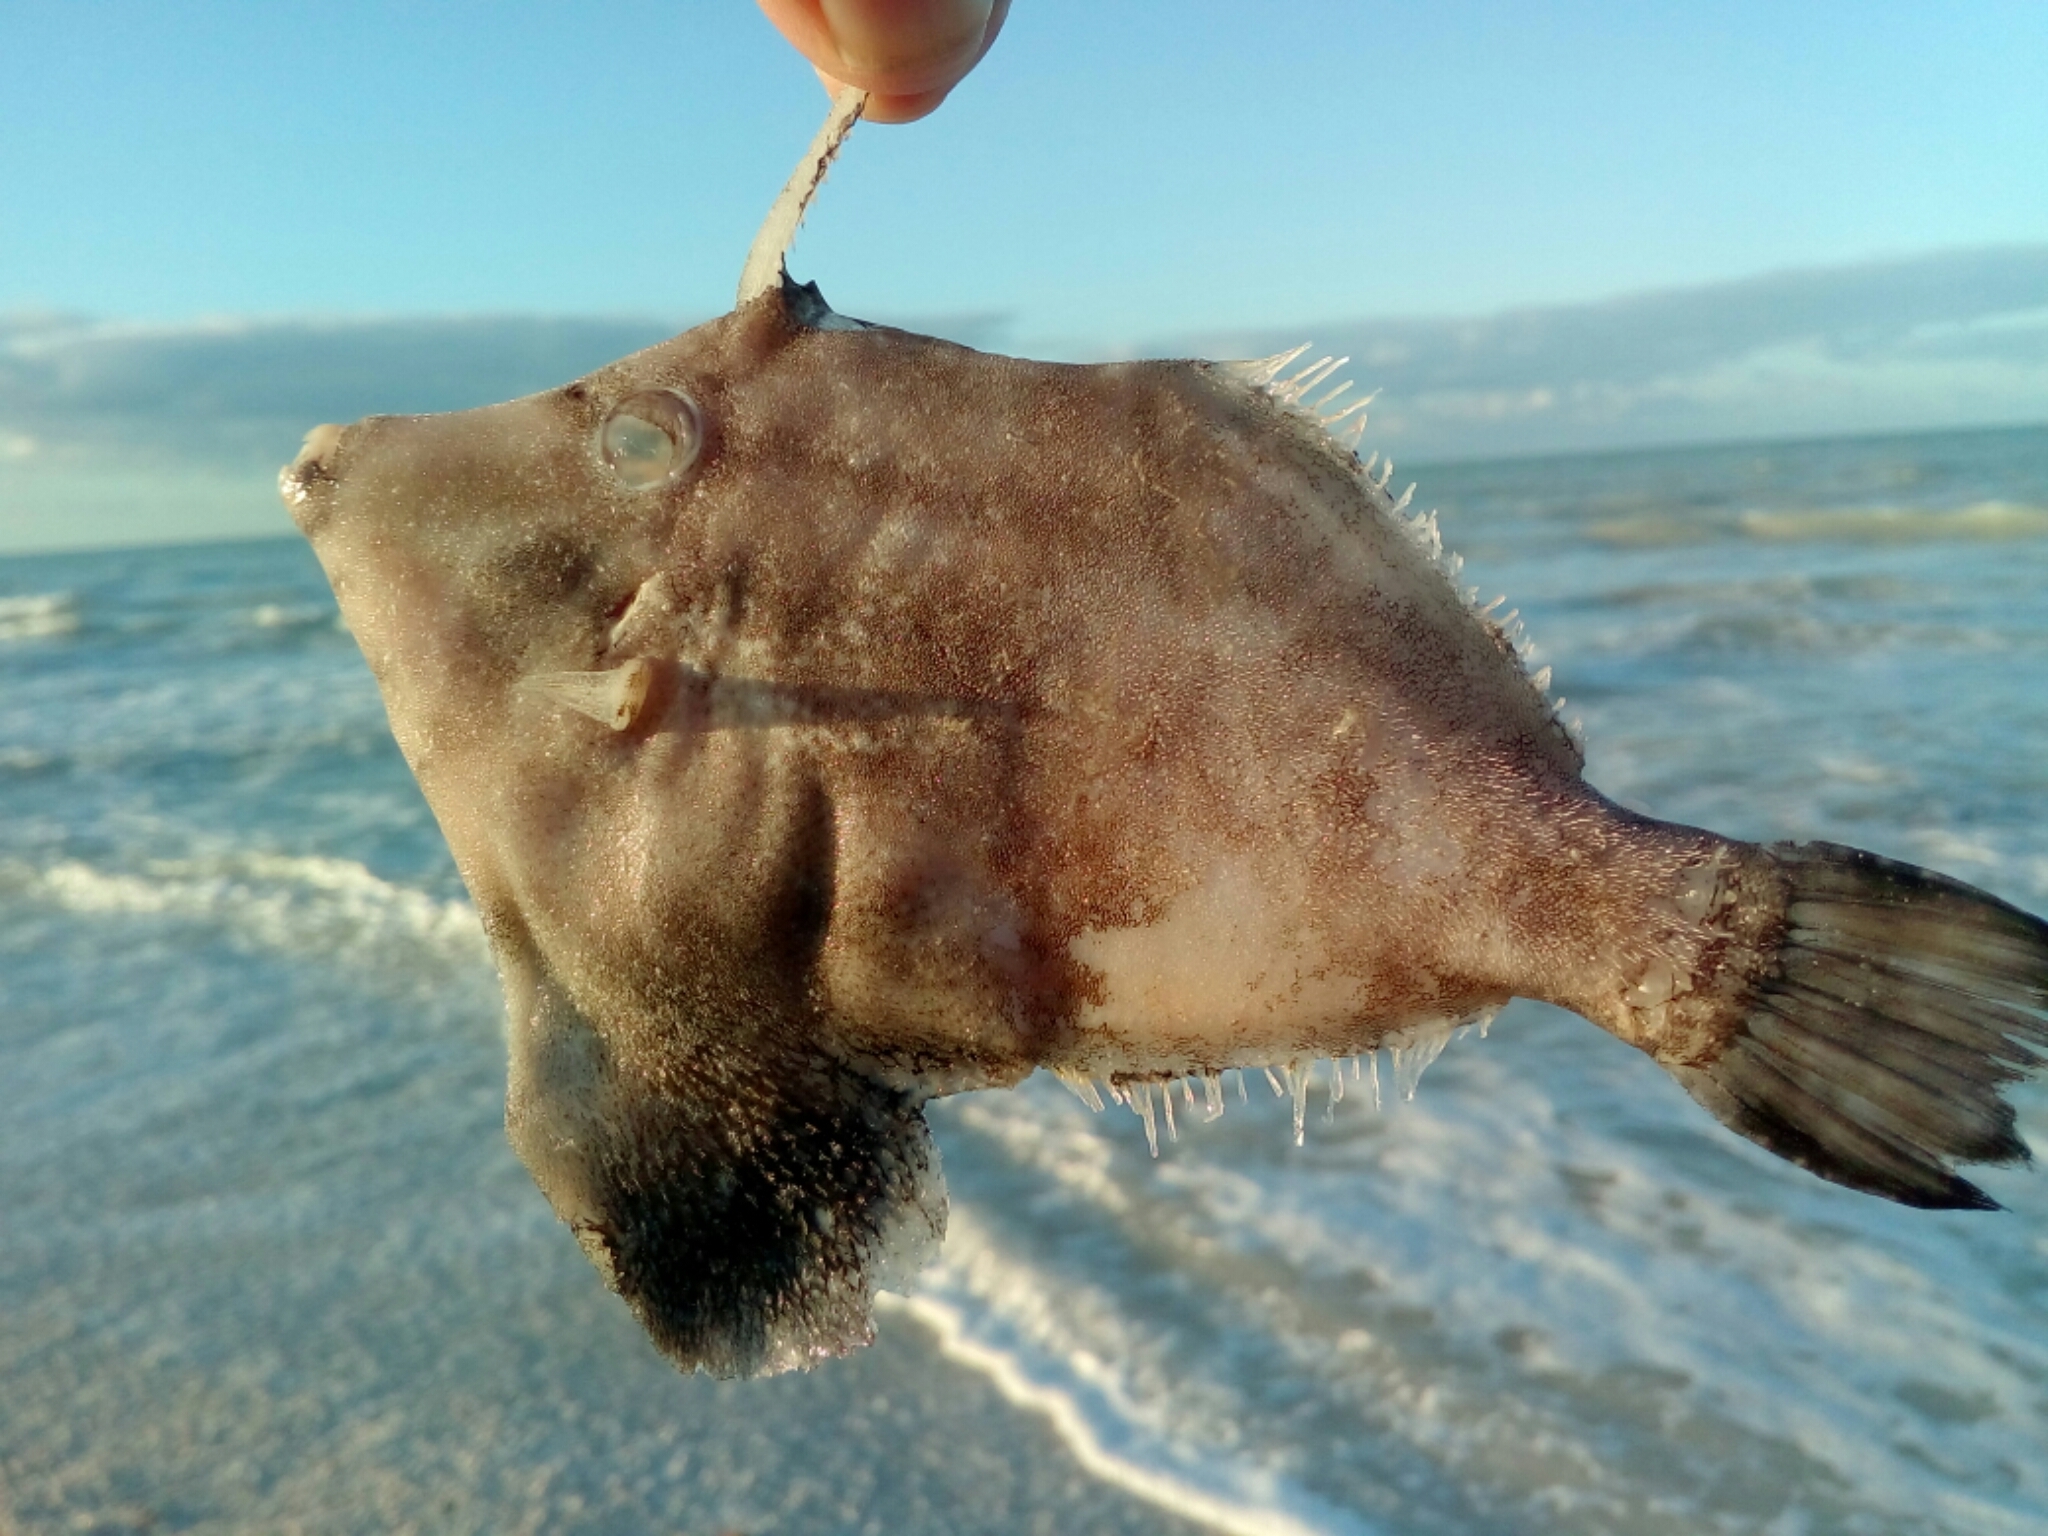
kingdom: Animalia
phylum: Chordata
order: Tetraodontiformes
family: Monacanthidae
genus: Stephanolepis
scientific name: Stephanolepis hispidus
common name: Planehead filefish
